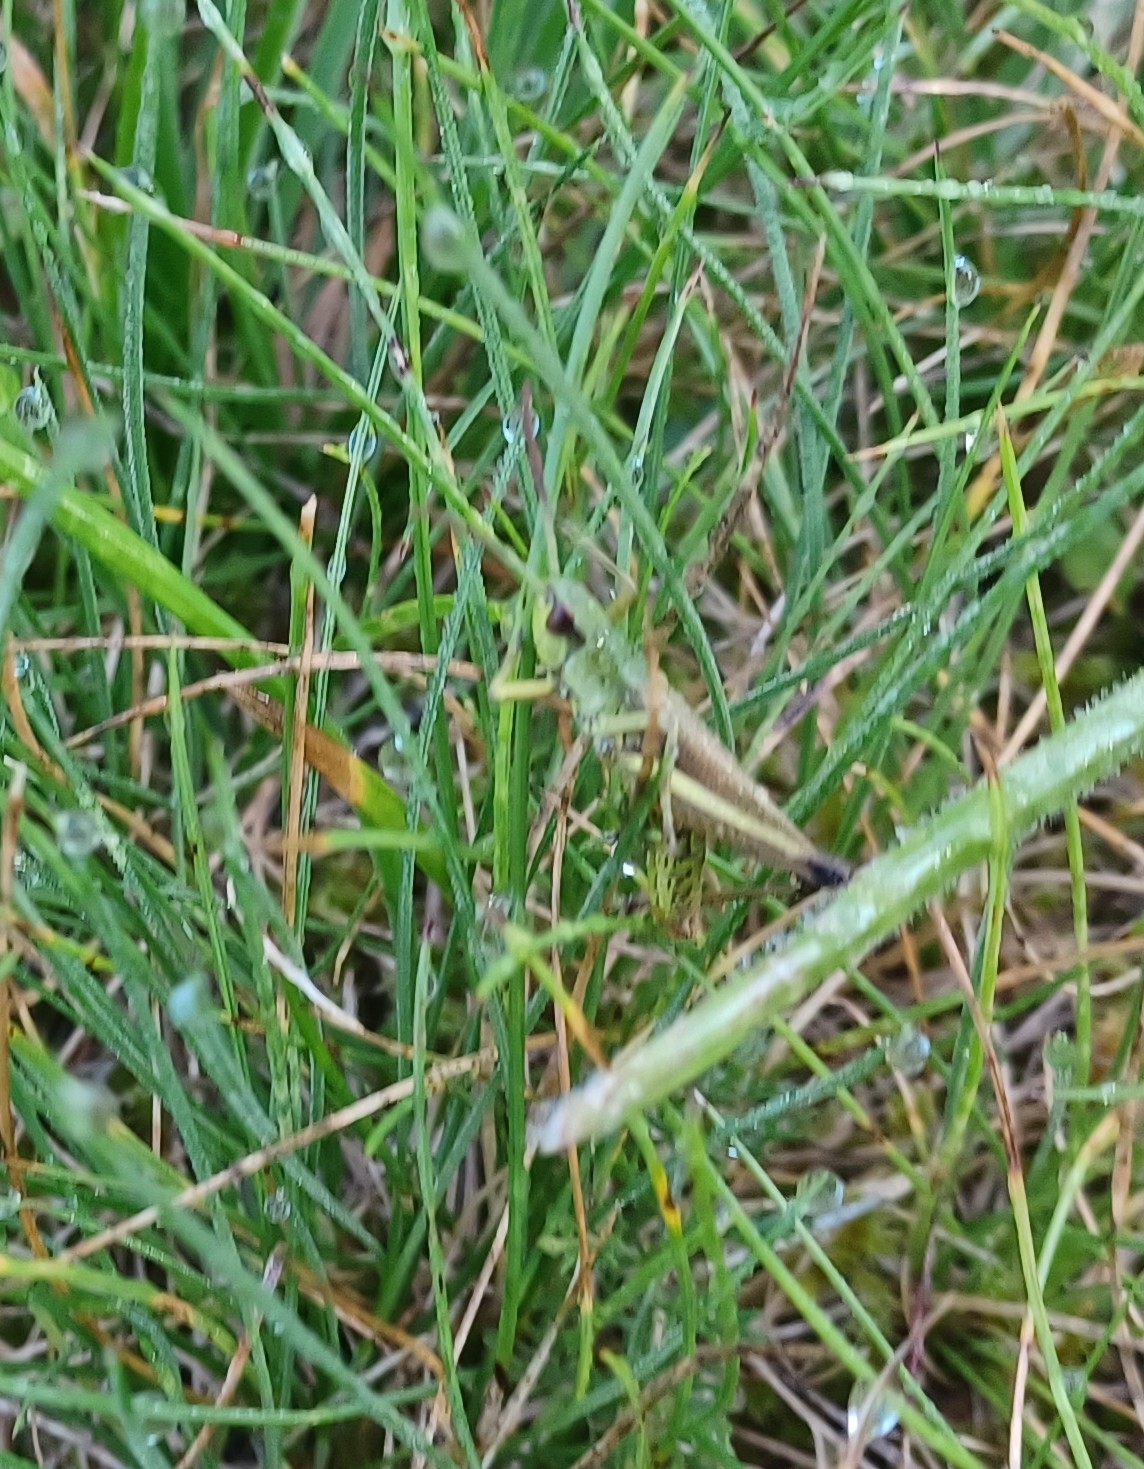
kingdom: Animalia
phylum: Arthropoda
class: Insecta
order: Orthoptera
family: Acrididae
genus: Pseudochorthippus
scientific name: Pseudochorthippus parallelus
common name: Meadow grasshopper
